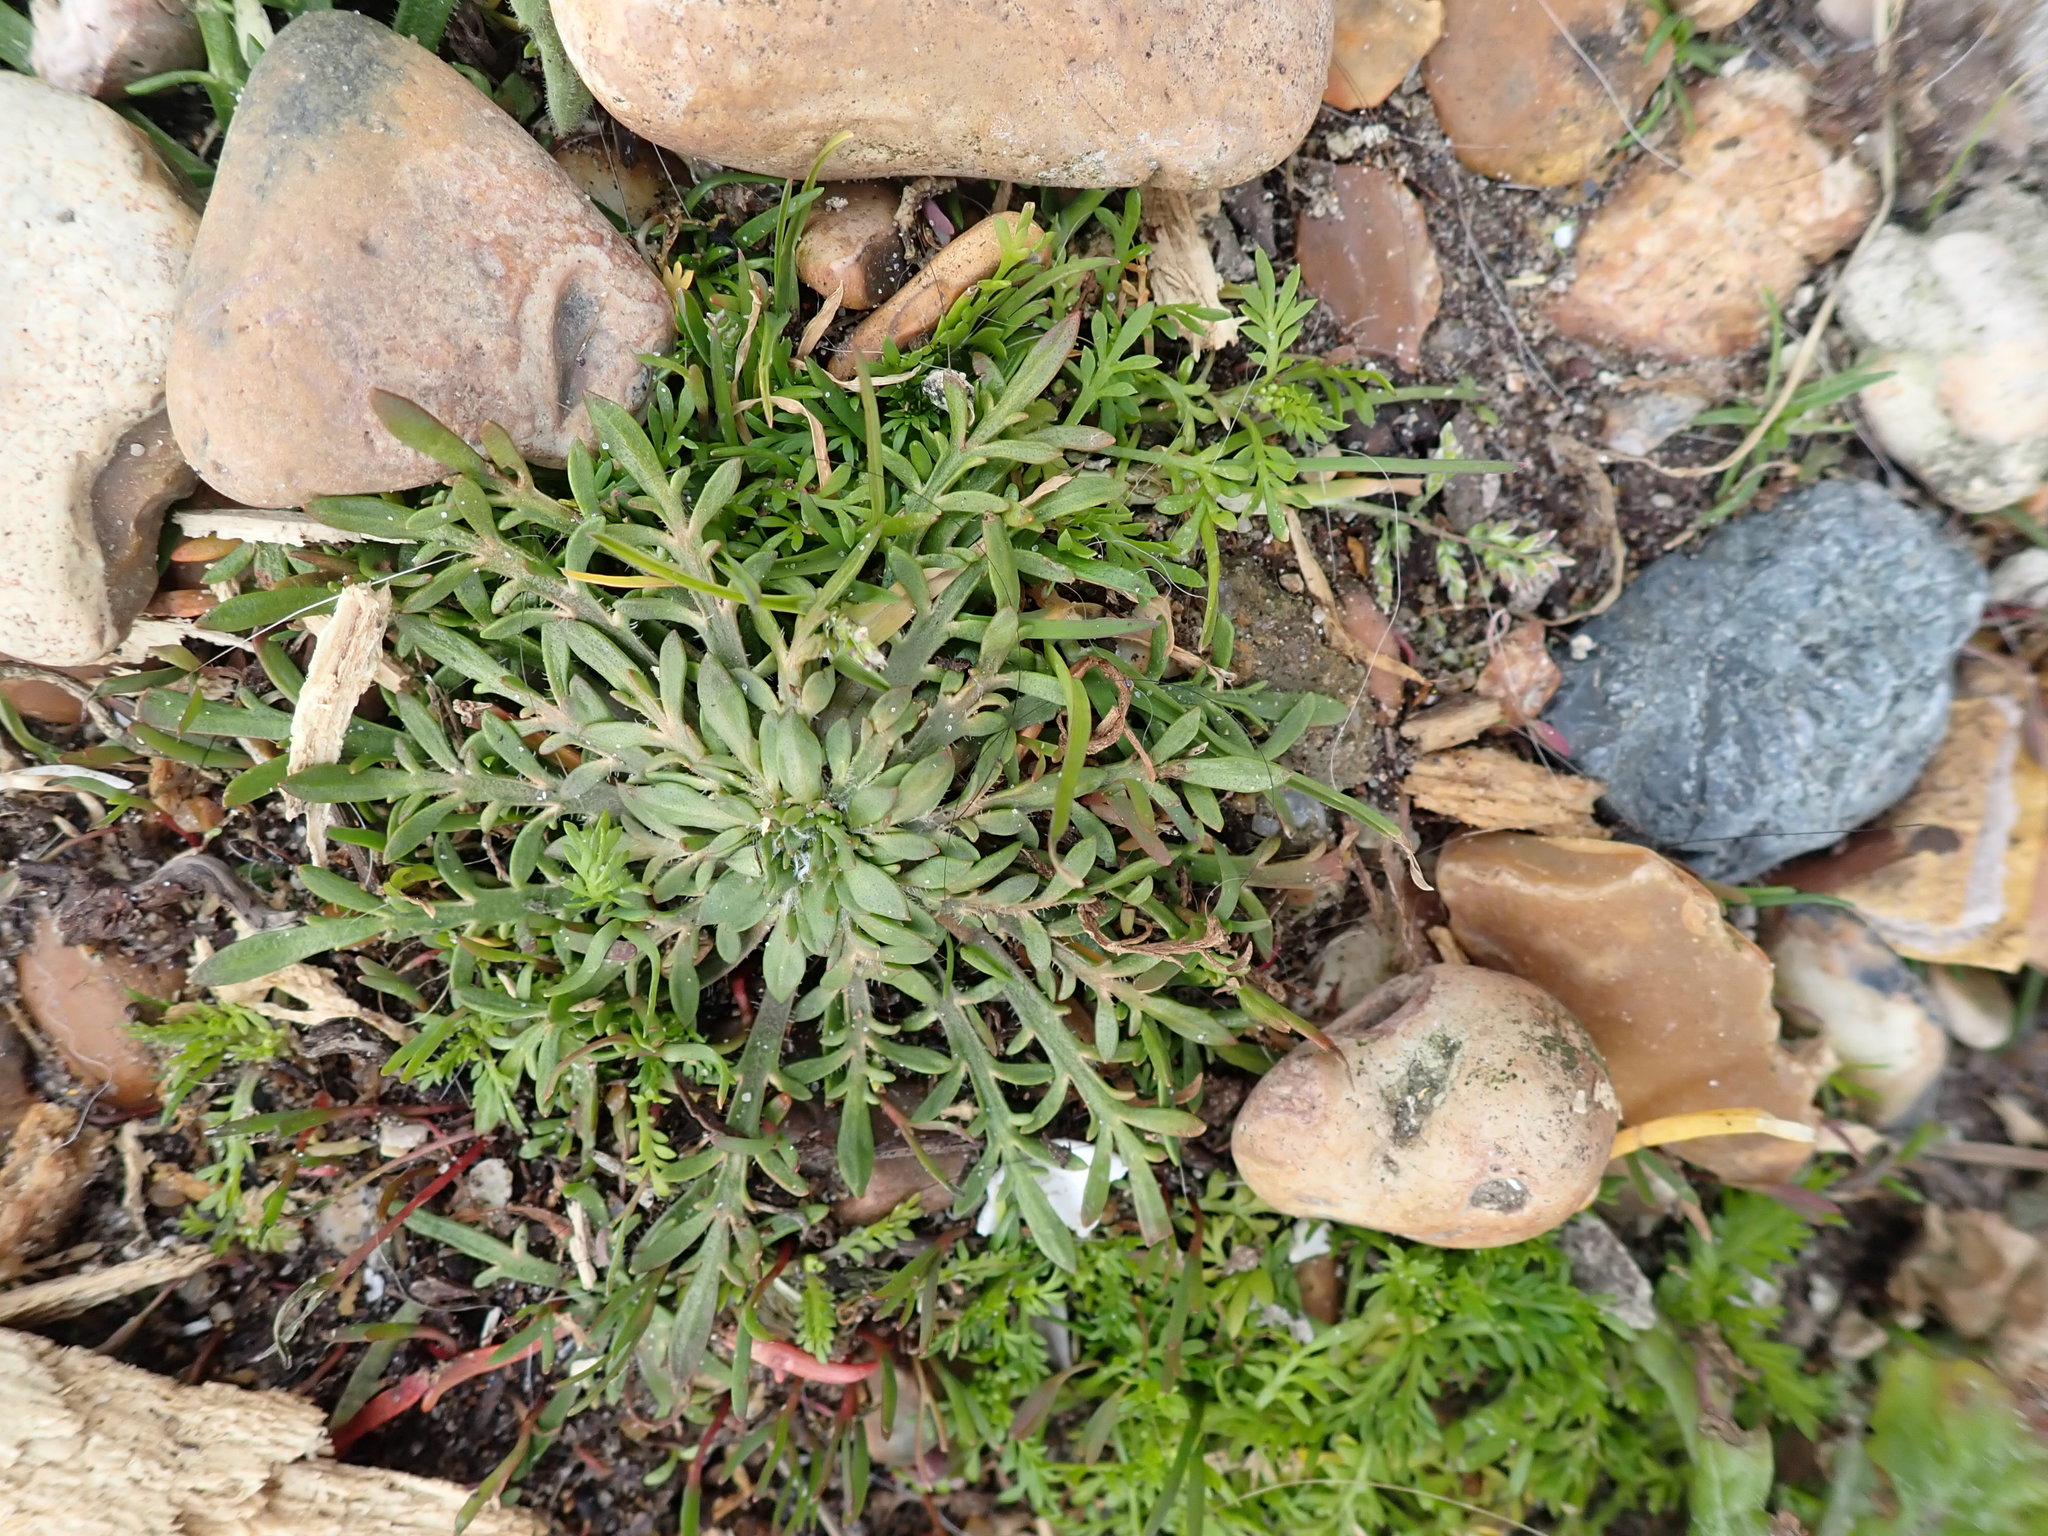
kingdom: Plantae
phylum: Tracheophyta
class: Magnoliopsida
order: Lamiales
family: Plantaginaceae
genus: Plantago
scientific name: Plantago coronopus
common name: Buck's-horn plantain
